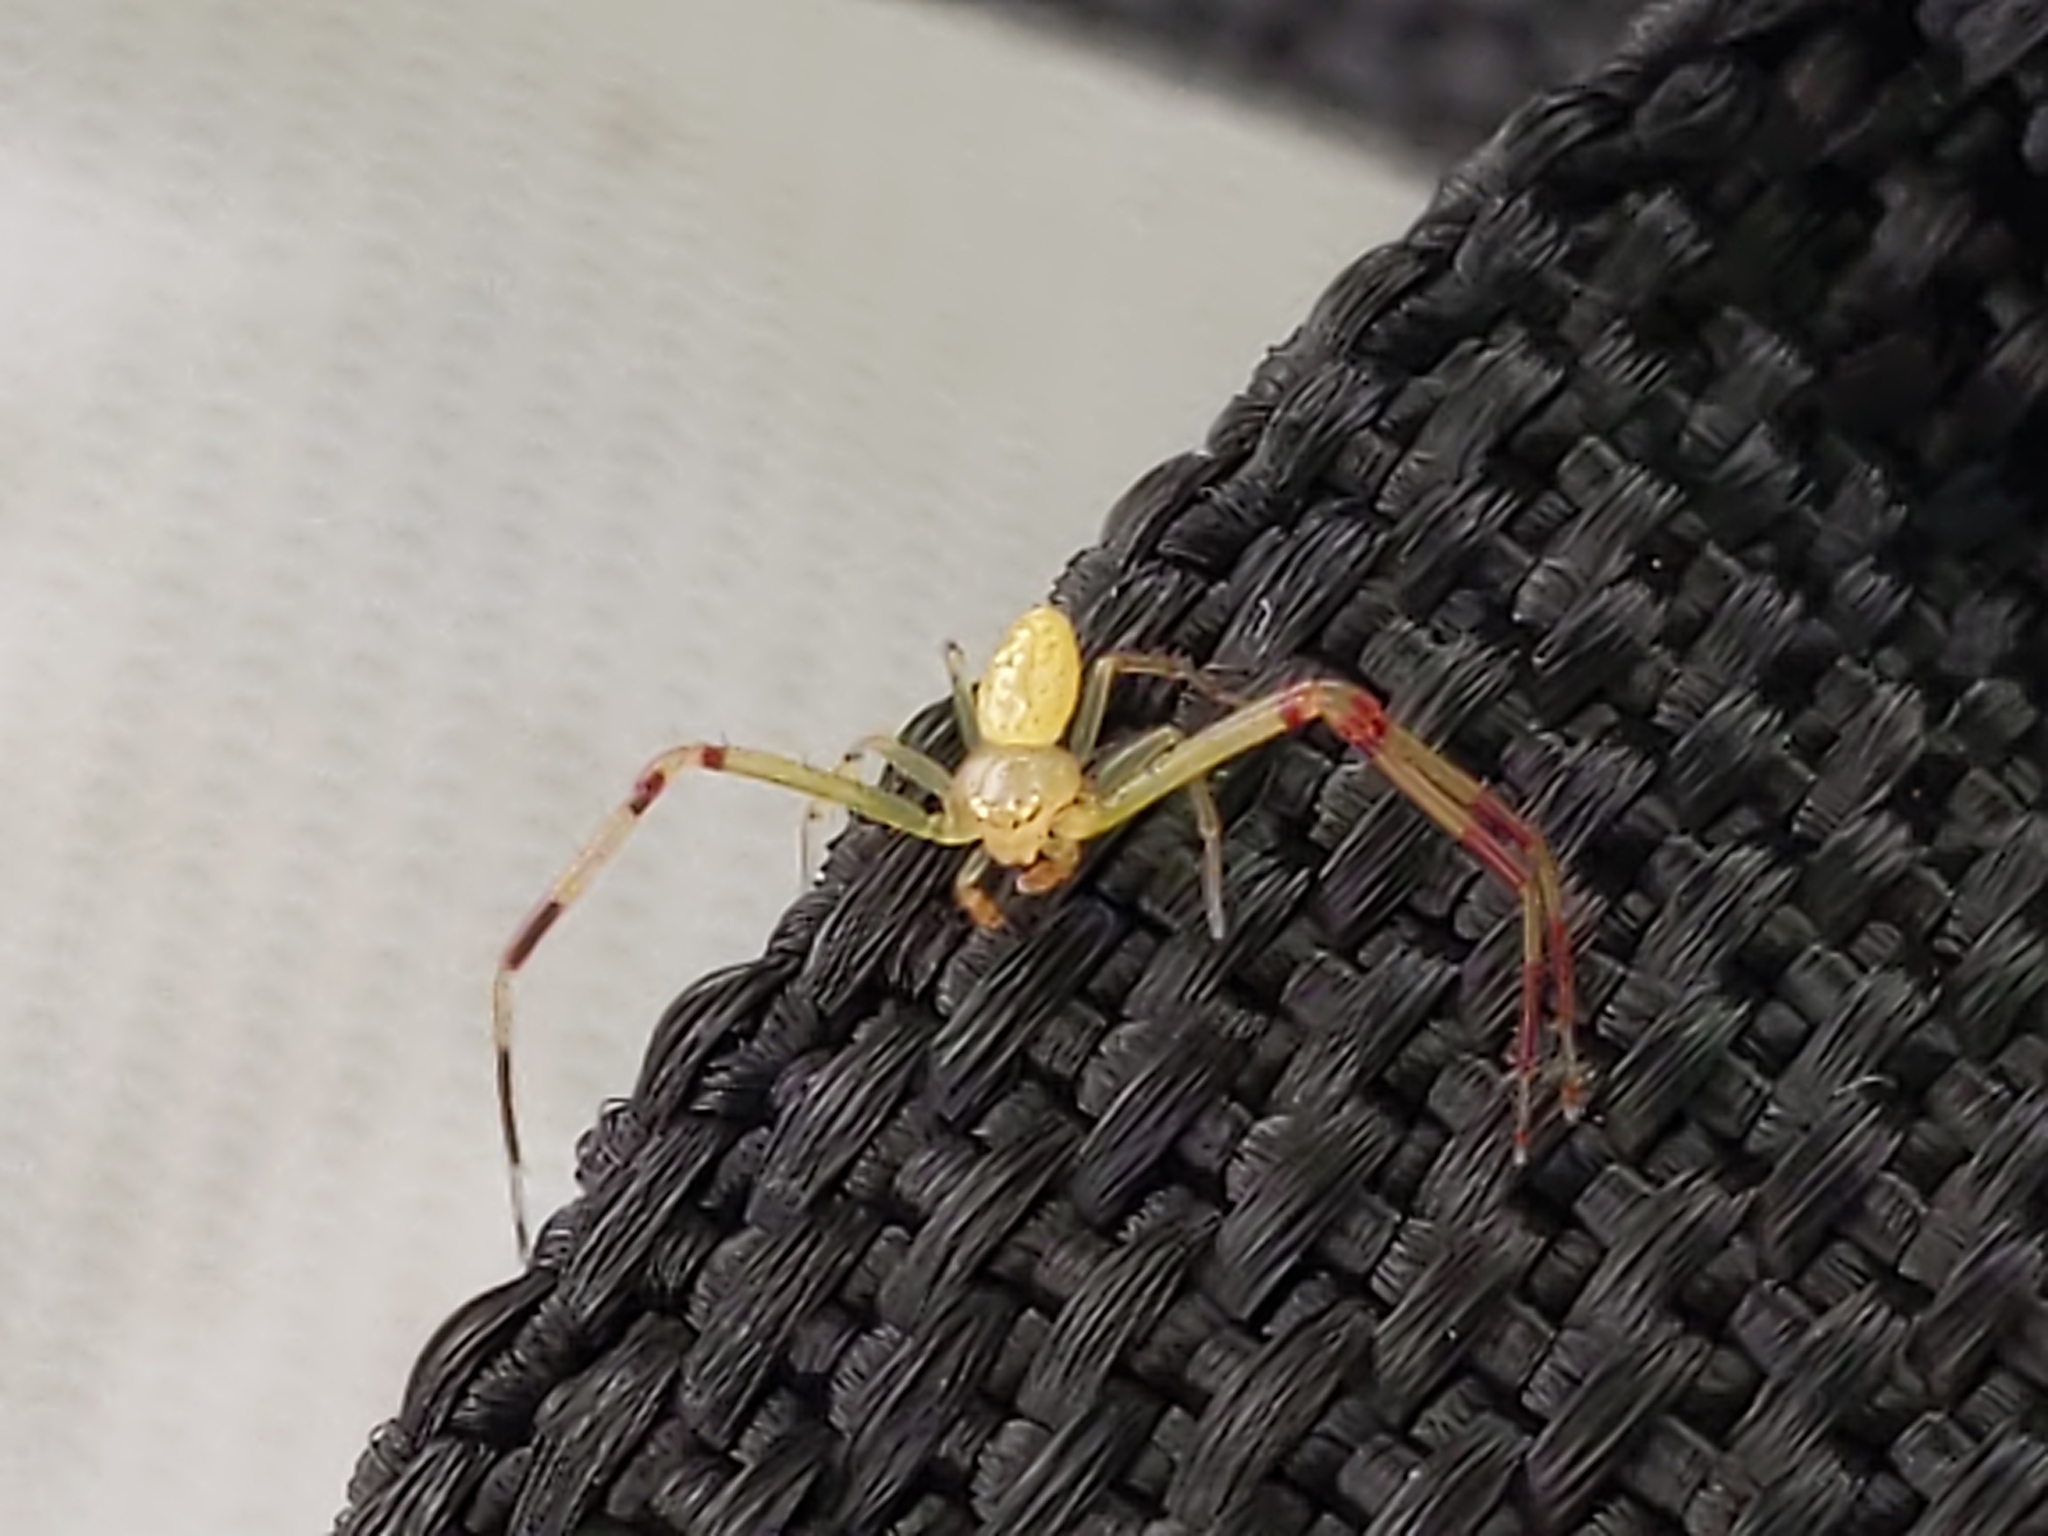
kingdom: Animalia
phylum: Arthropoda
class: Arachnida
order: Araneae
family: Thomisidae
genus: Misumessus
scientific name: Misumessus oblongus
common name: American green crab spider
